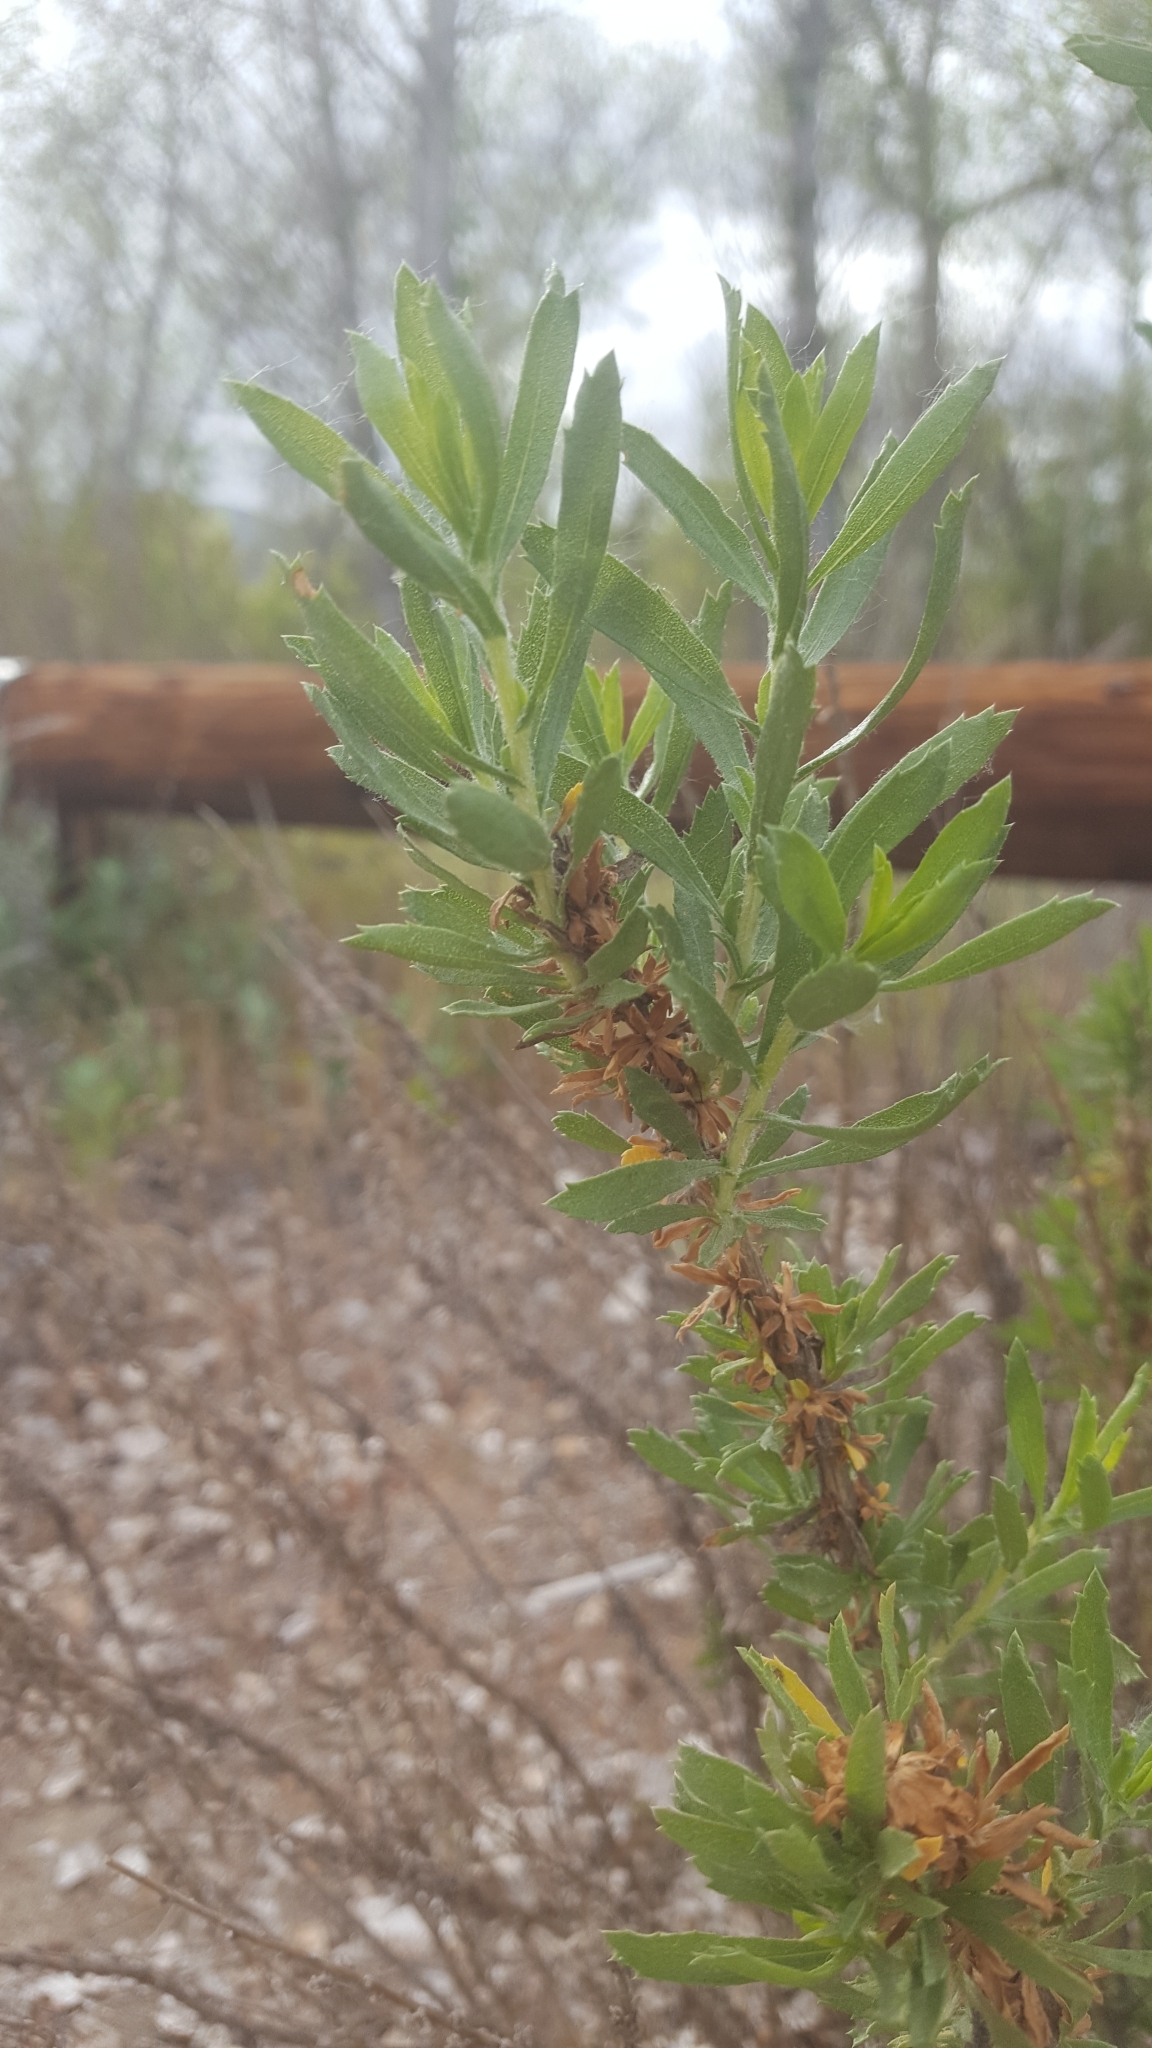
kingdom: Plantae
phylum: Tracheophyta
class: Magnoliopsida
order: Asterales
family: Asteraceae
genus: Isocoma
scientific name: Isocoma menziesii
